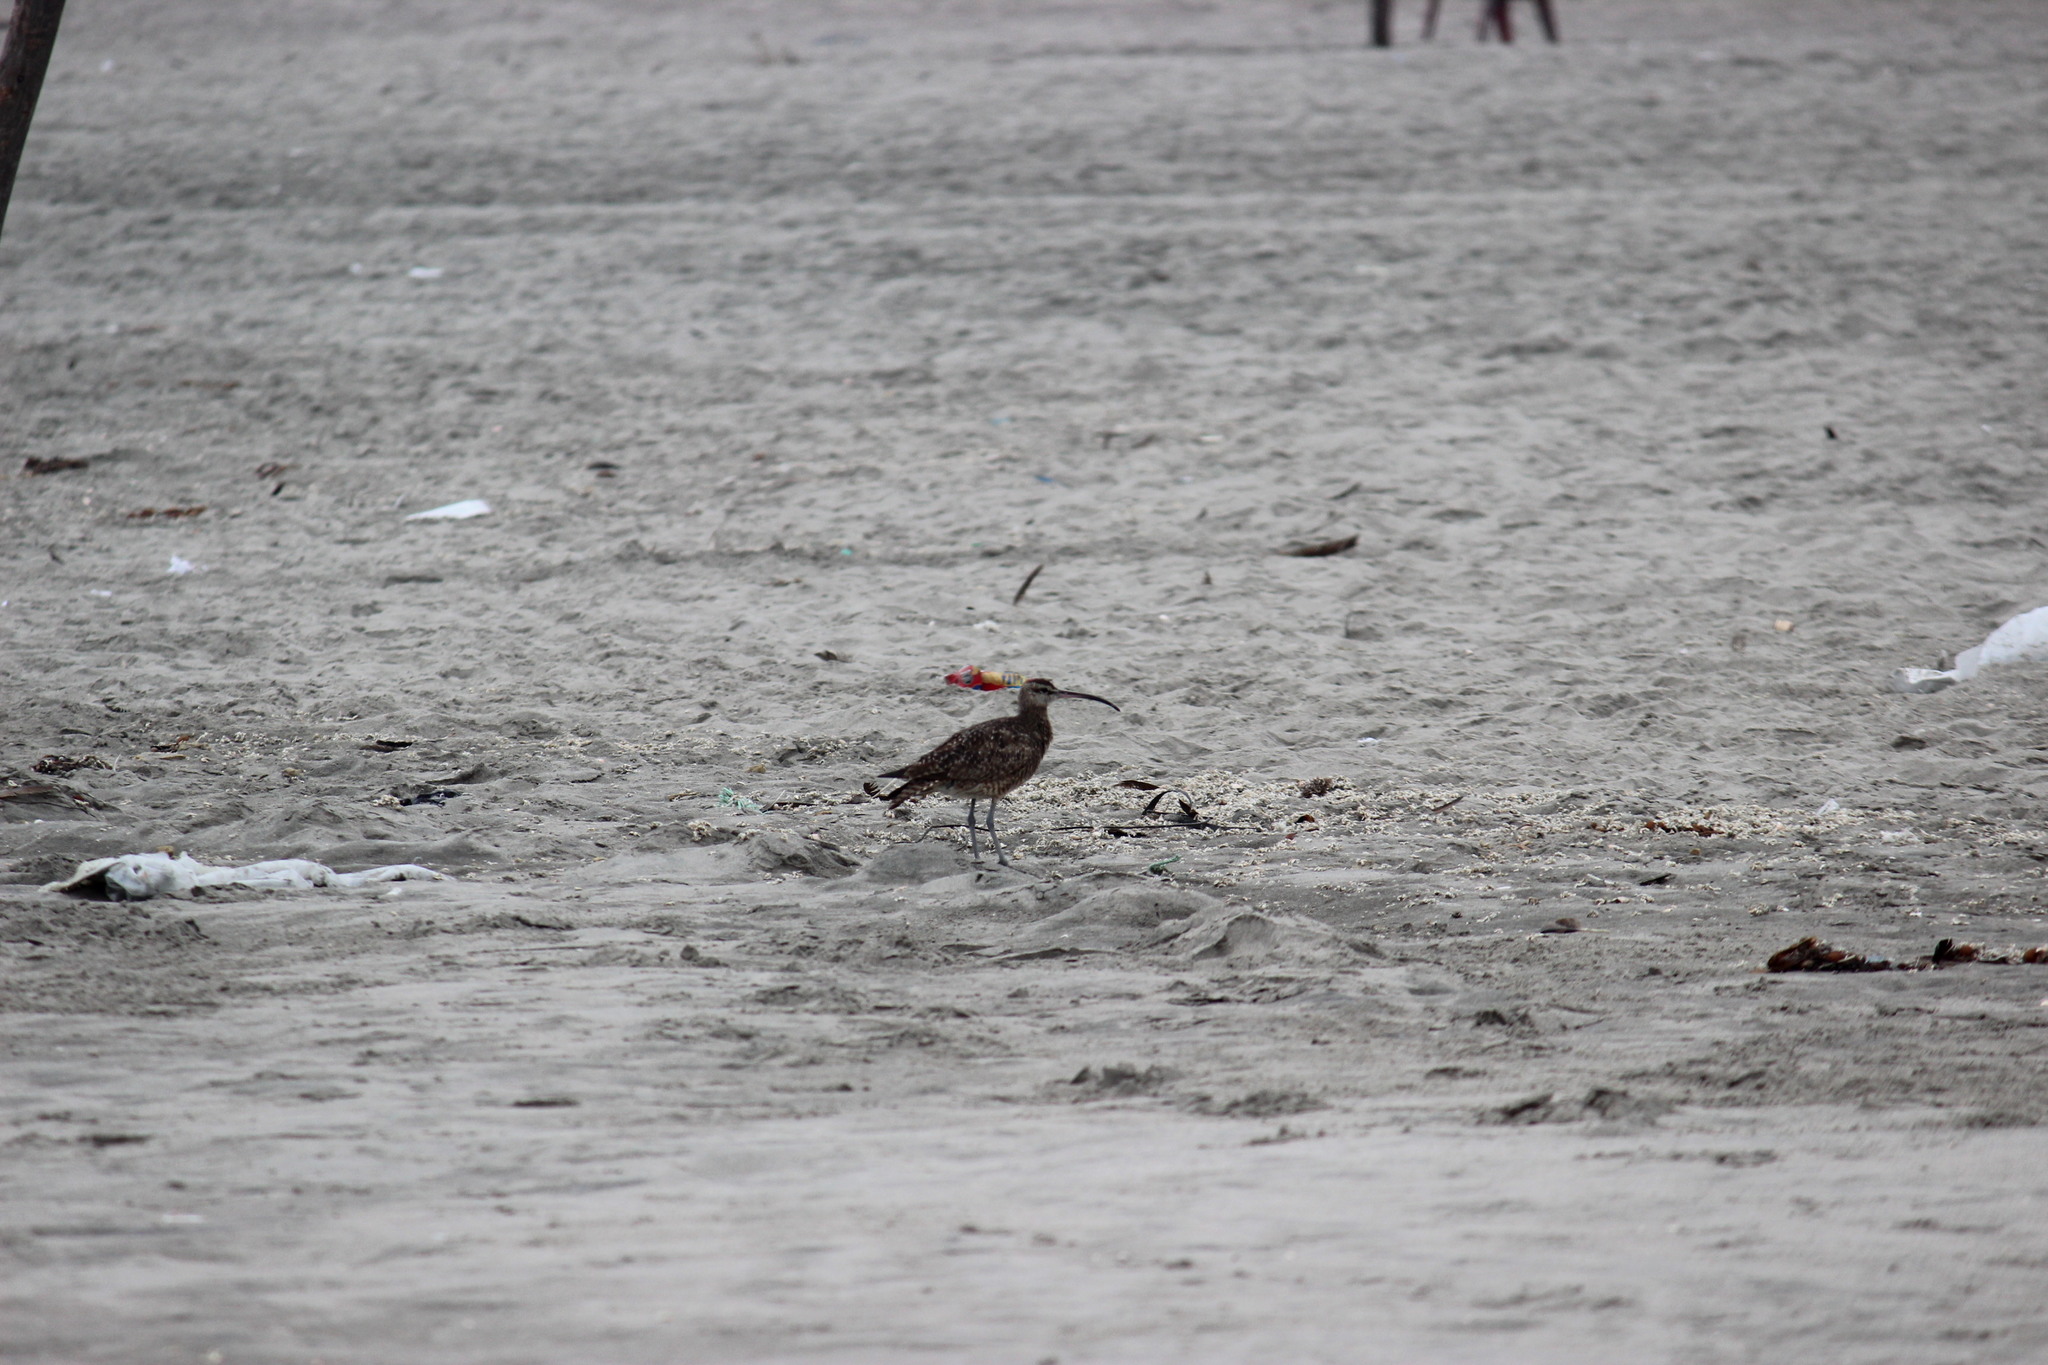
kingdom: Animalia
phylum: Chordata
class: Aves
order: Charadriiformes
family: Scolopacidae
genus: Numenius
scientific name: Numenius phaeopus
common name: Whimbrel
